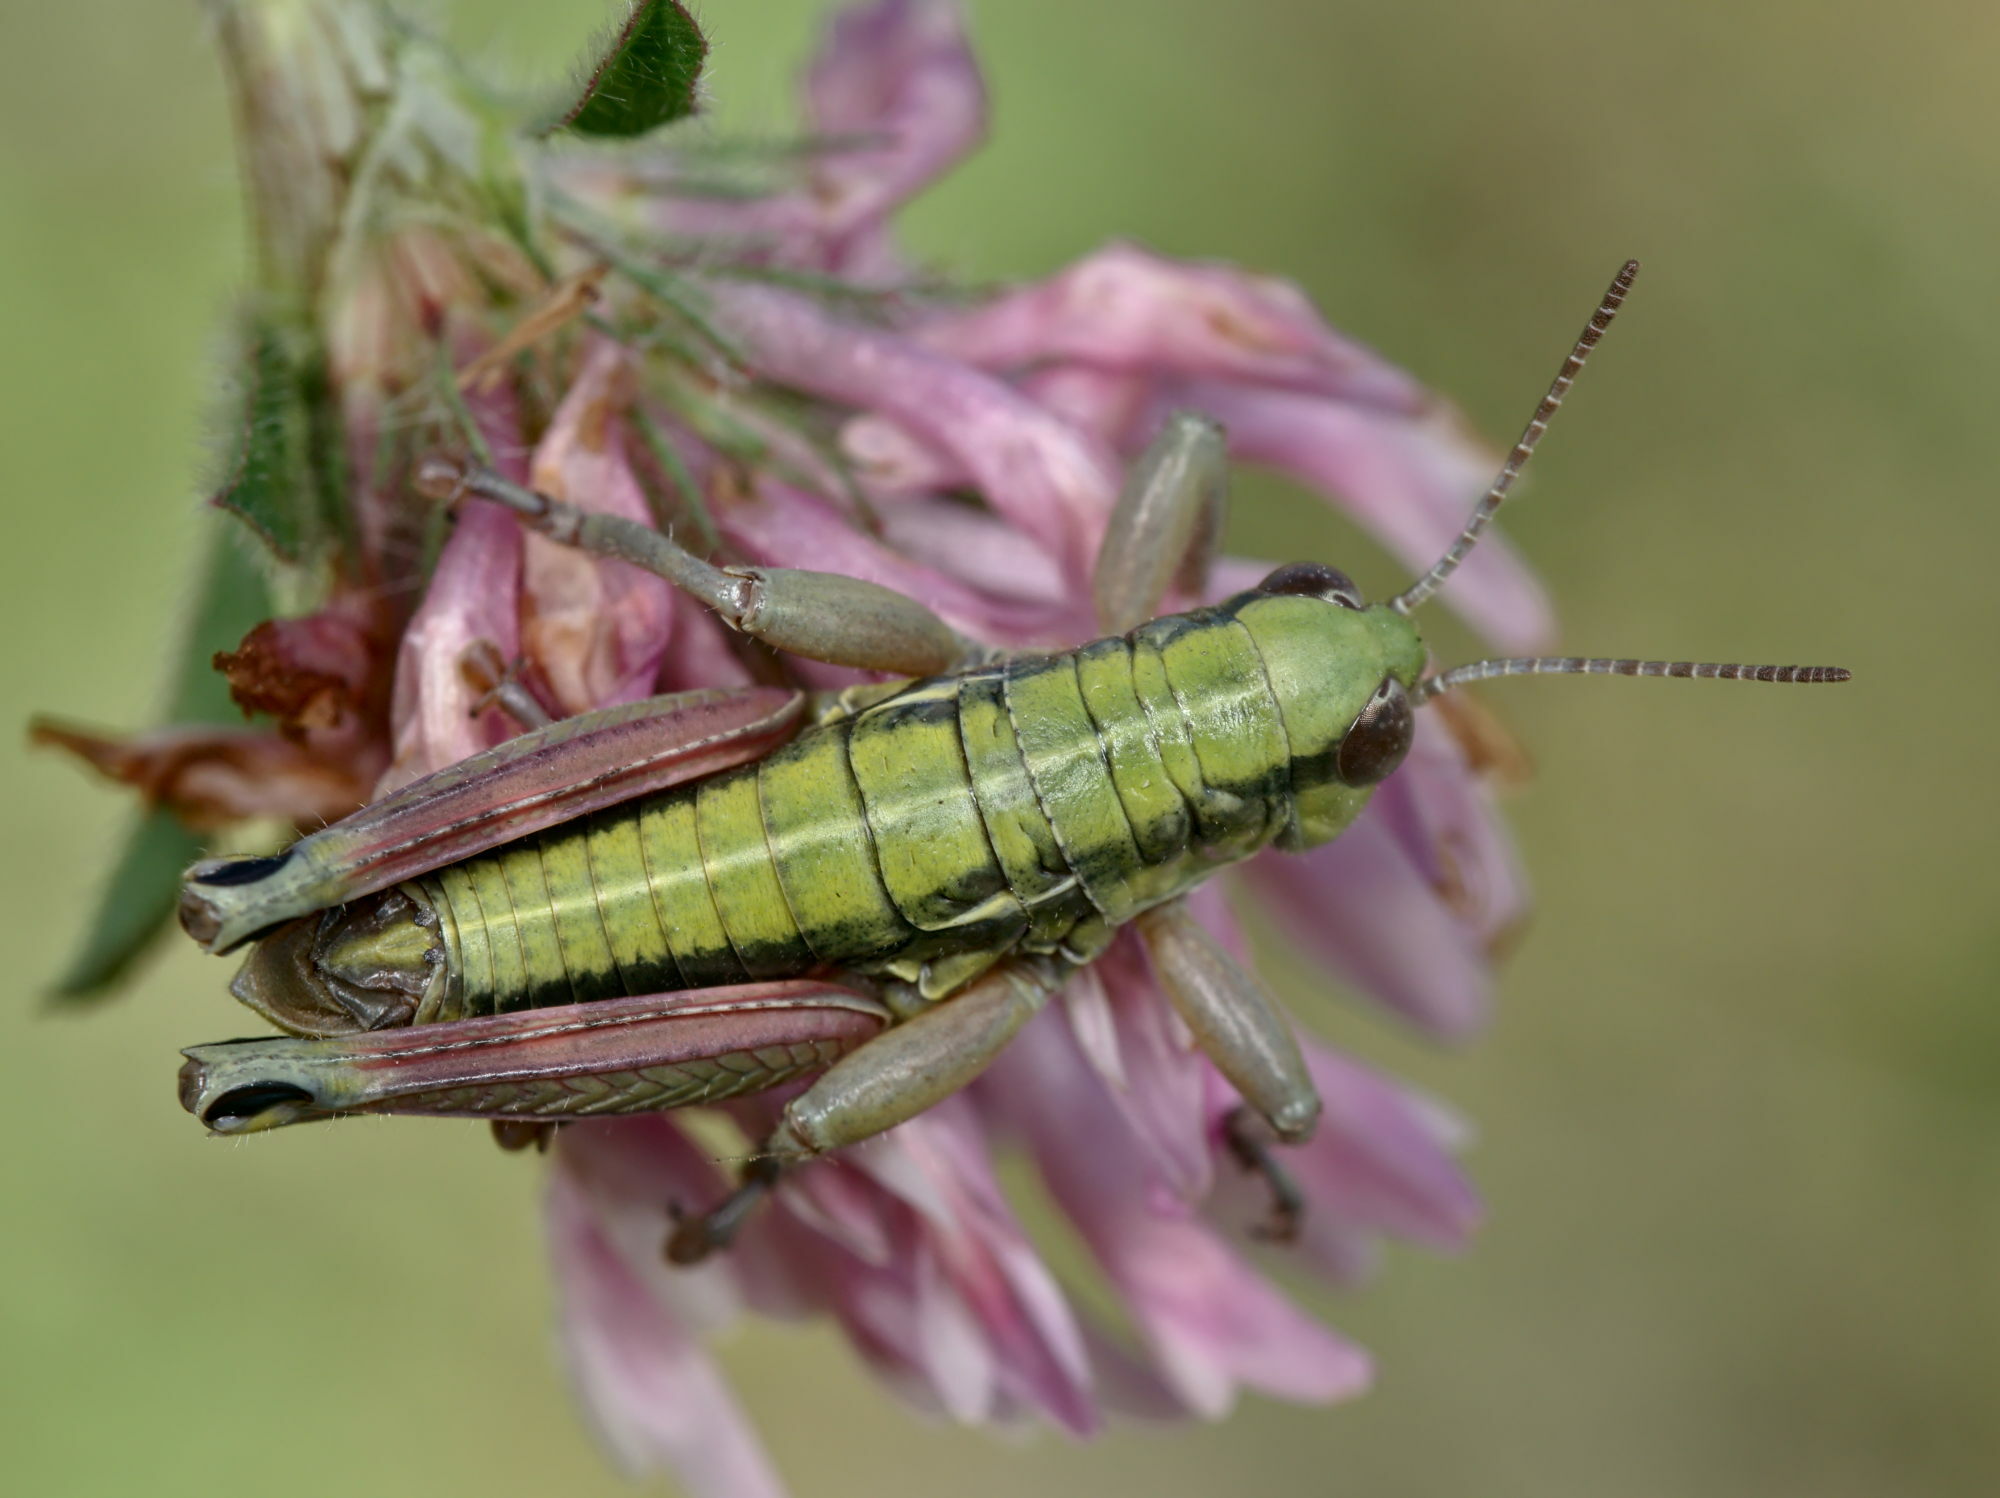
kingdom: Animalia
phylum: Arthropoda
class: Insecta
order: Orthoptera
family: Acrididae
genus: Epipodisma
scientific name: Epipodisma pedemontana
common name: Piedmont mountain grasshopper
